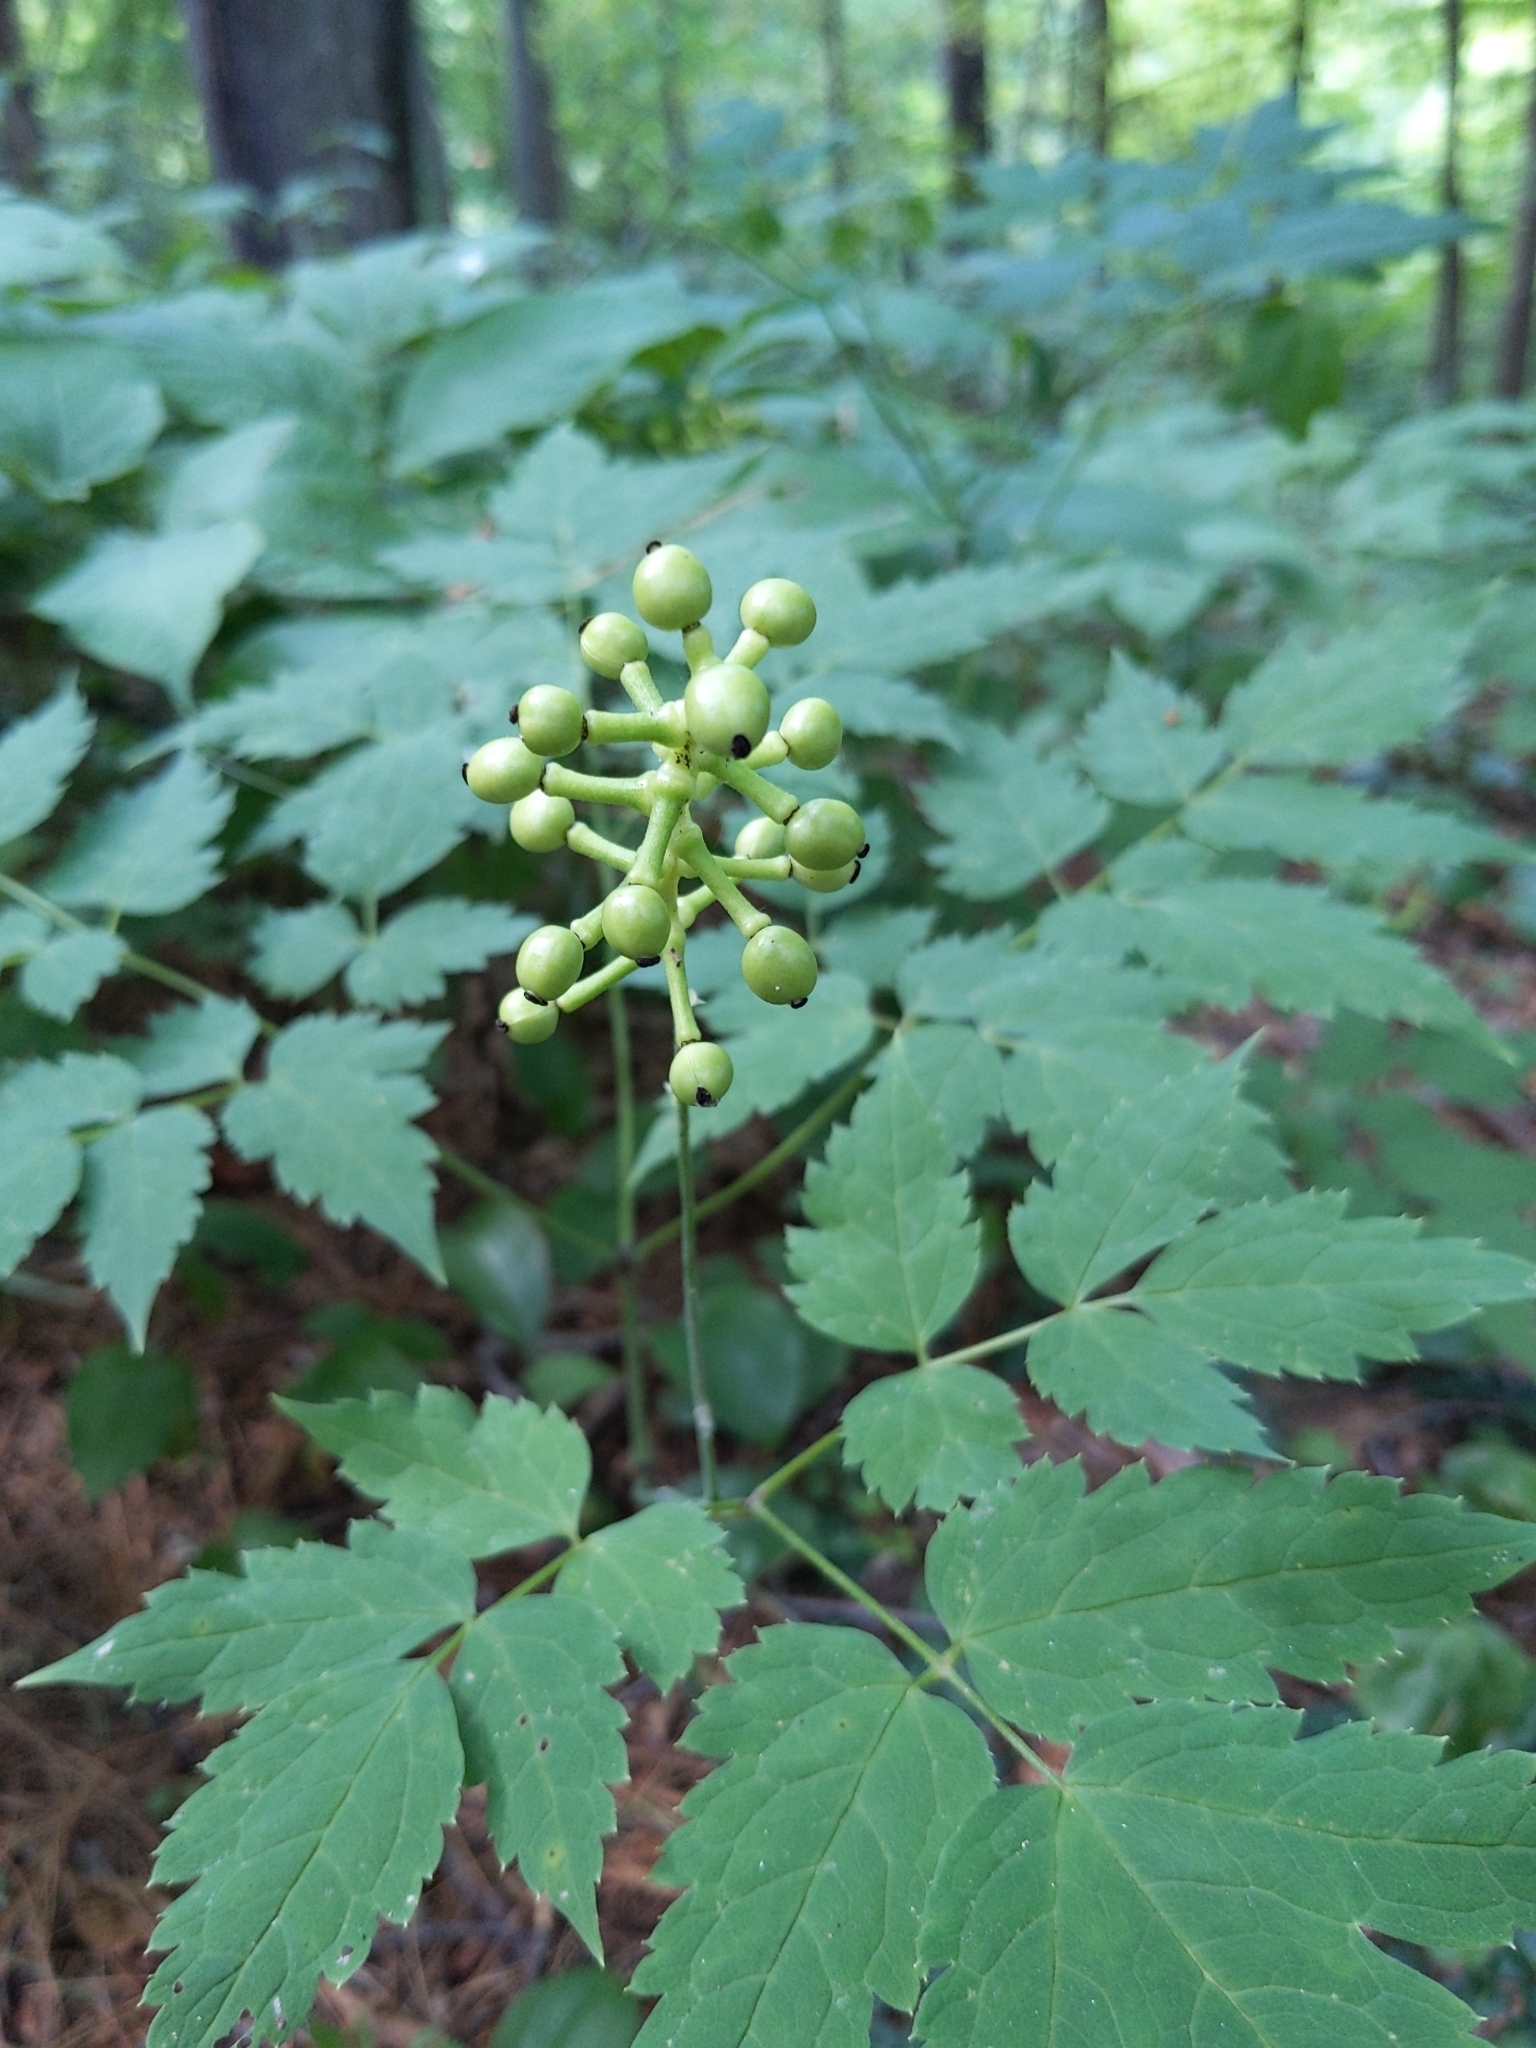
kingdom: Plantae
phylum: Tracheophyta
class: Magnoliopsida
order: Ranunculales
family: Ranunculaceae
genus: Actaea
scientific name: Actaea pachypoda
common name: Doll's-eyes
